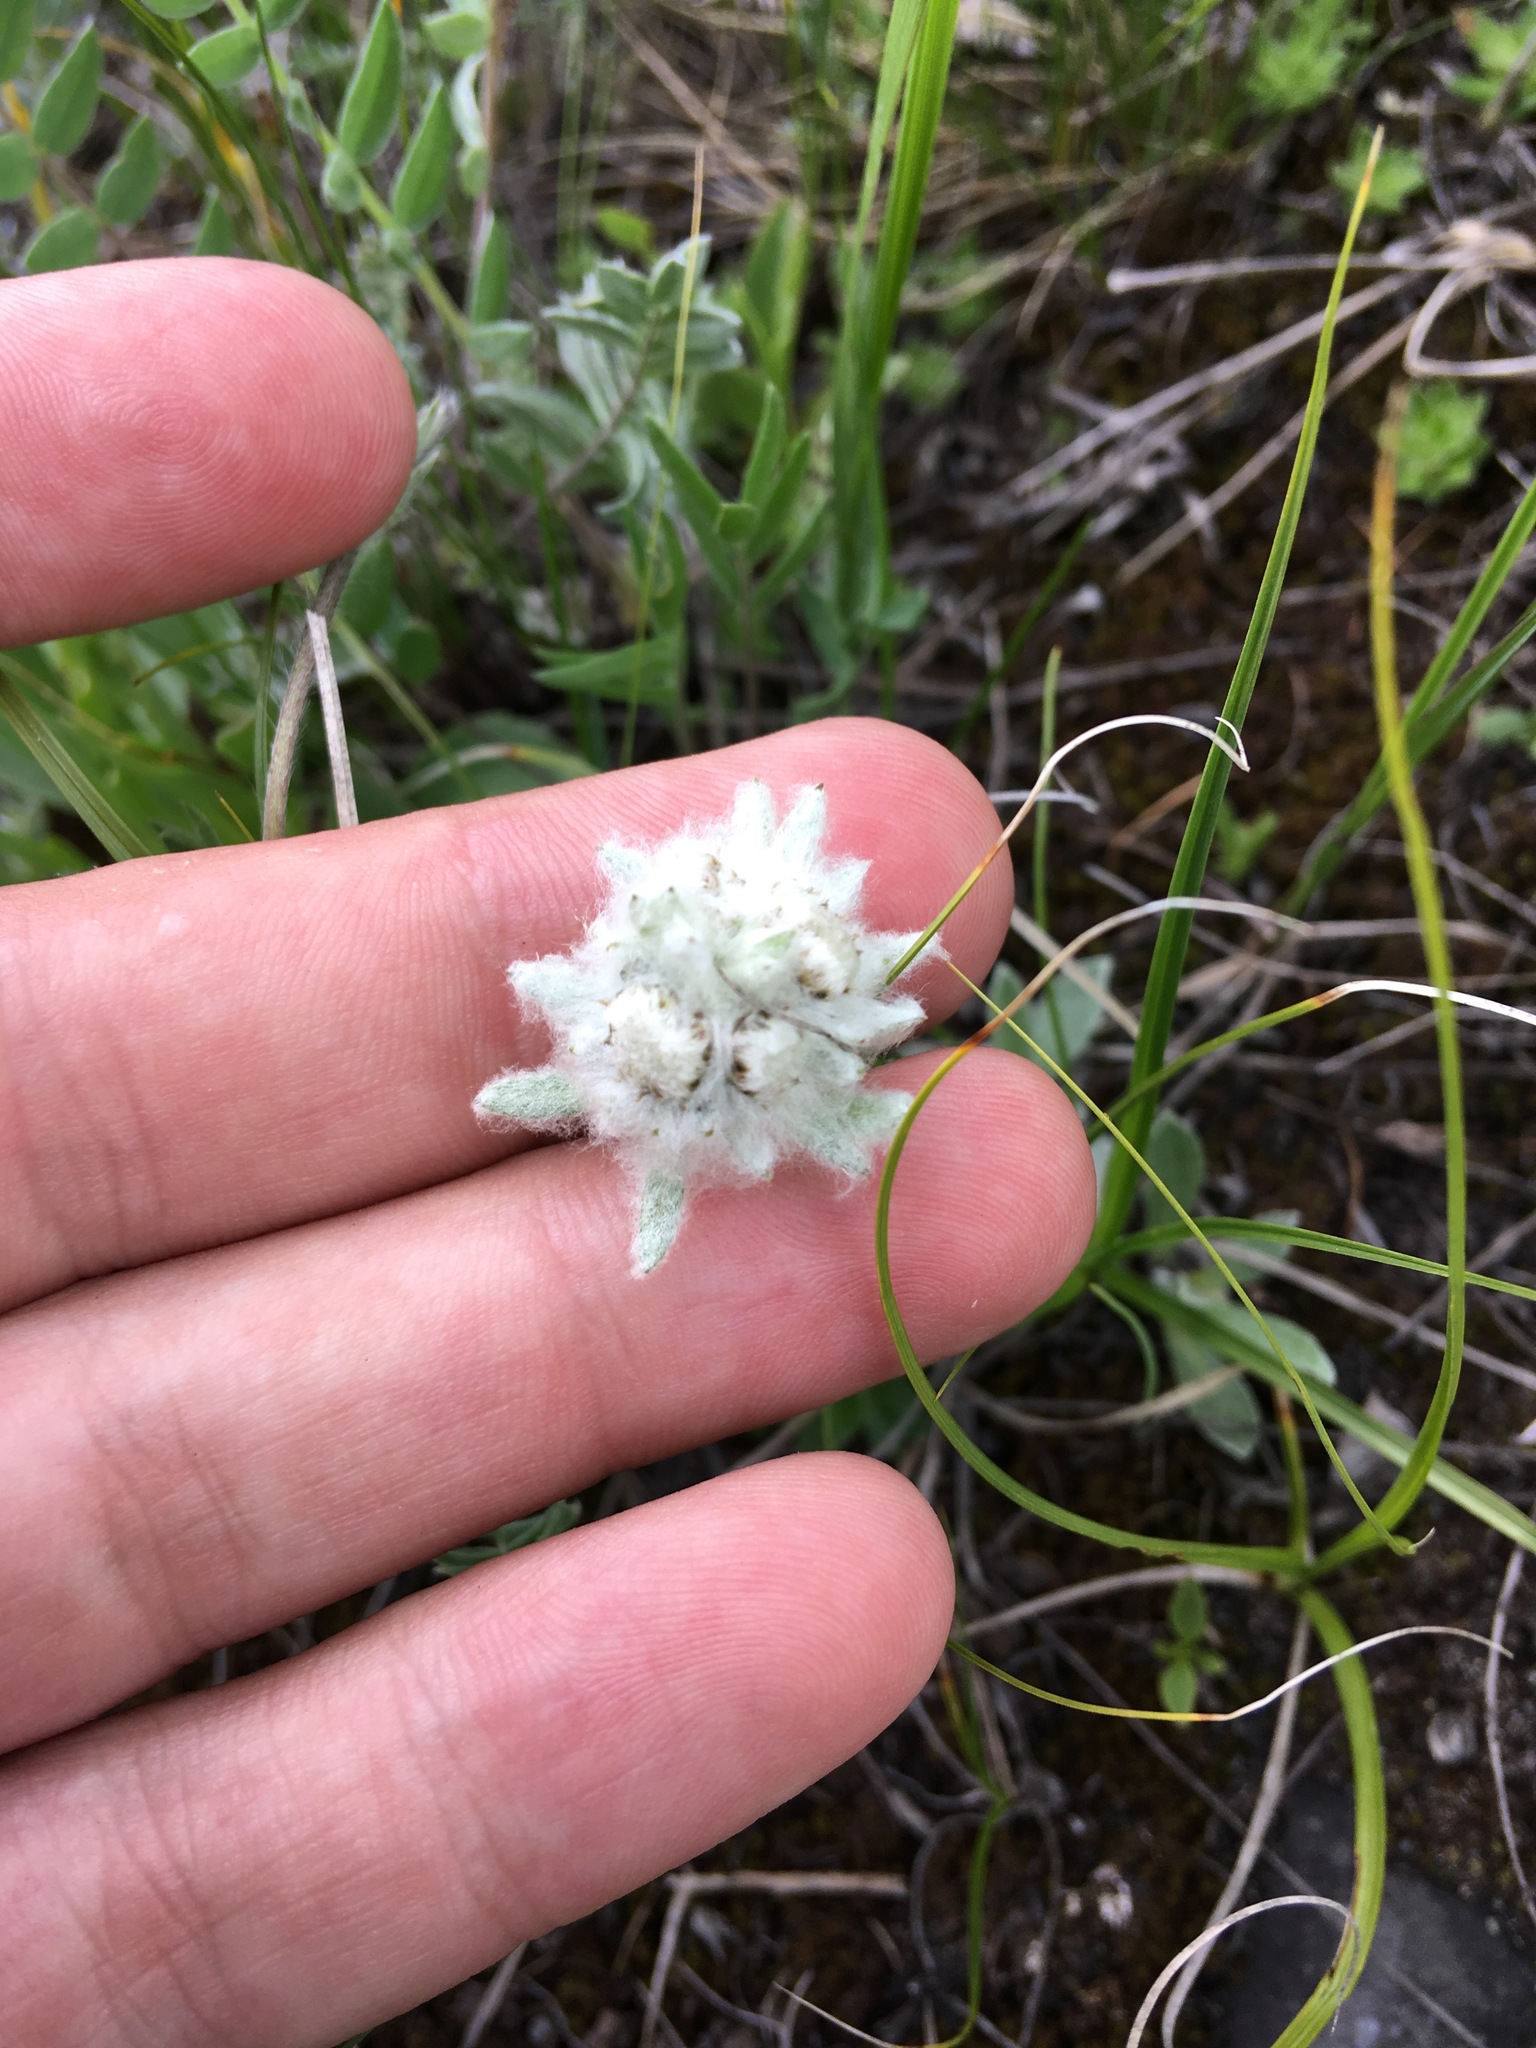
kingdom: Plantae
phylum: Tracheophyta
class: Magnoliopsida
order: Asterales
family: Asteraceae
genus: Leontopodium
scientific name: Leontopodium leontopodinum
